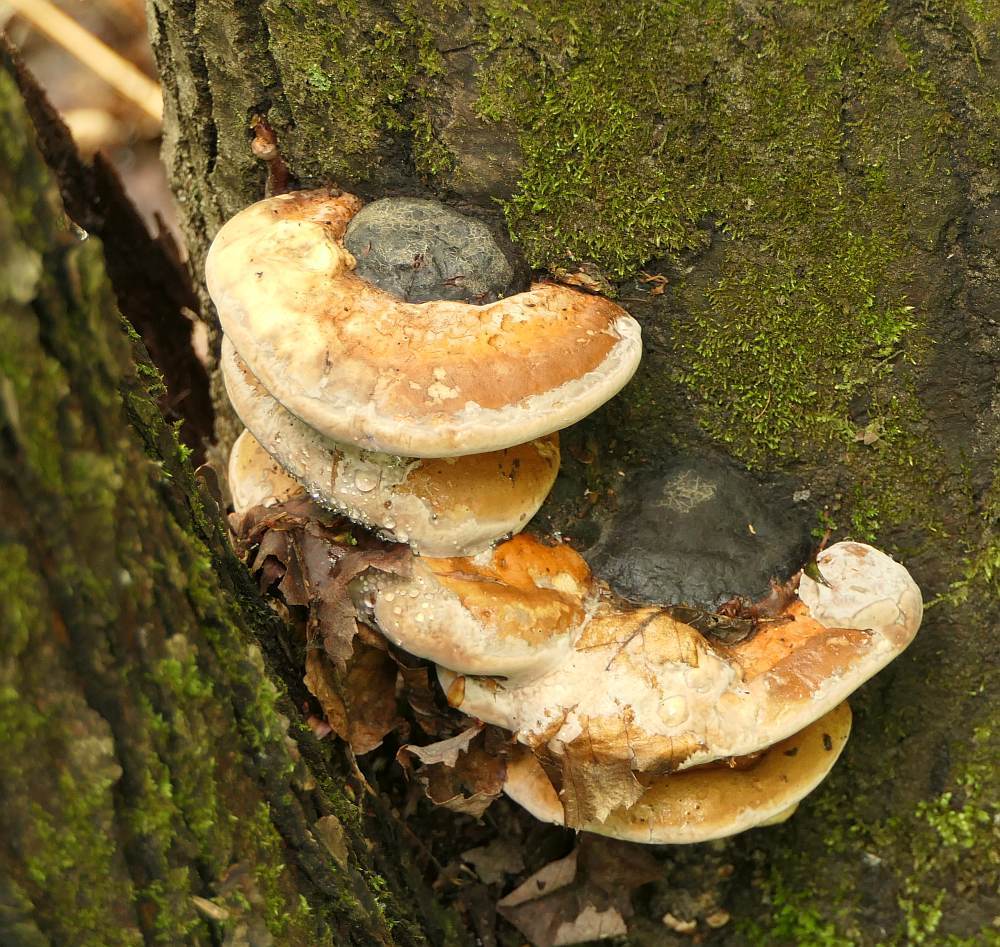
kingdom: Fungi
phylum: Basidiomycota
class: Agaricomycetes
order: Polyporales
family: Fomitopsidaceae
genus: Fomitopsis
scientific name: Fomitopsis mounceae
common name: Northern red belt
